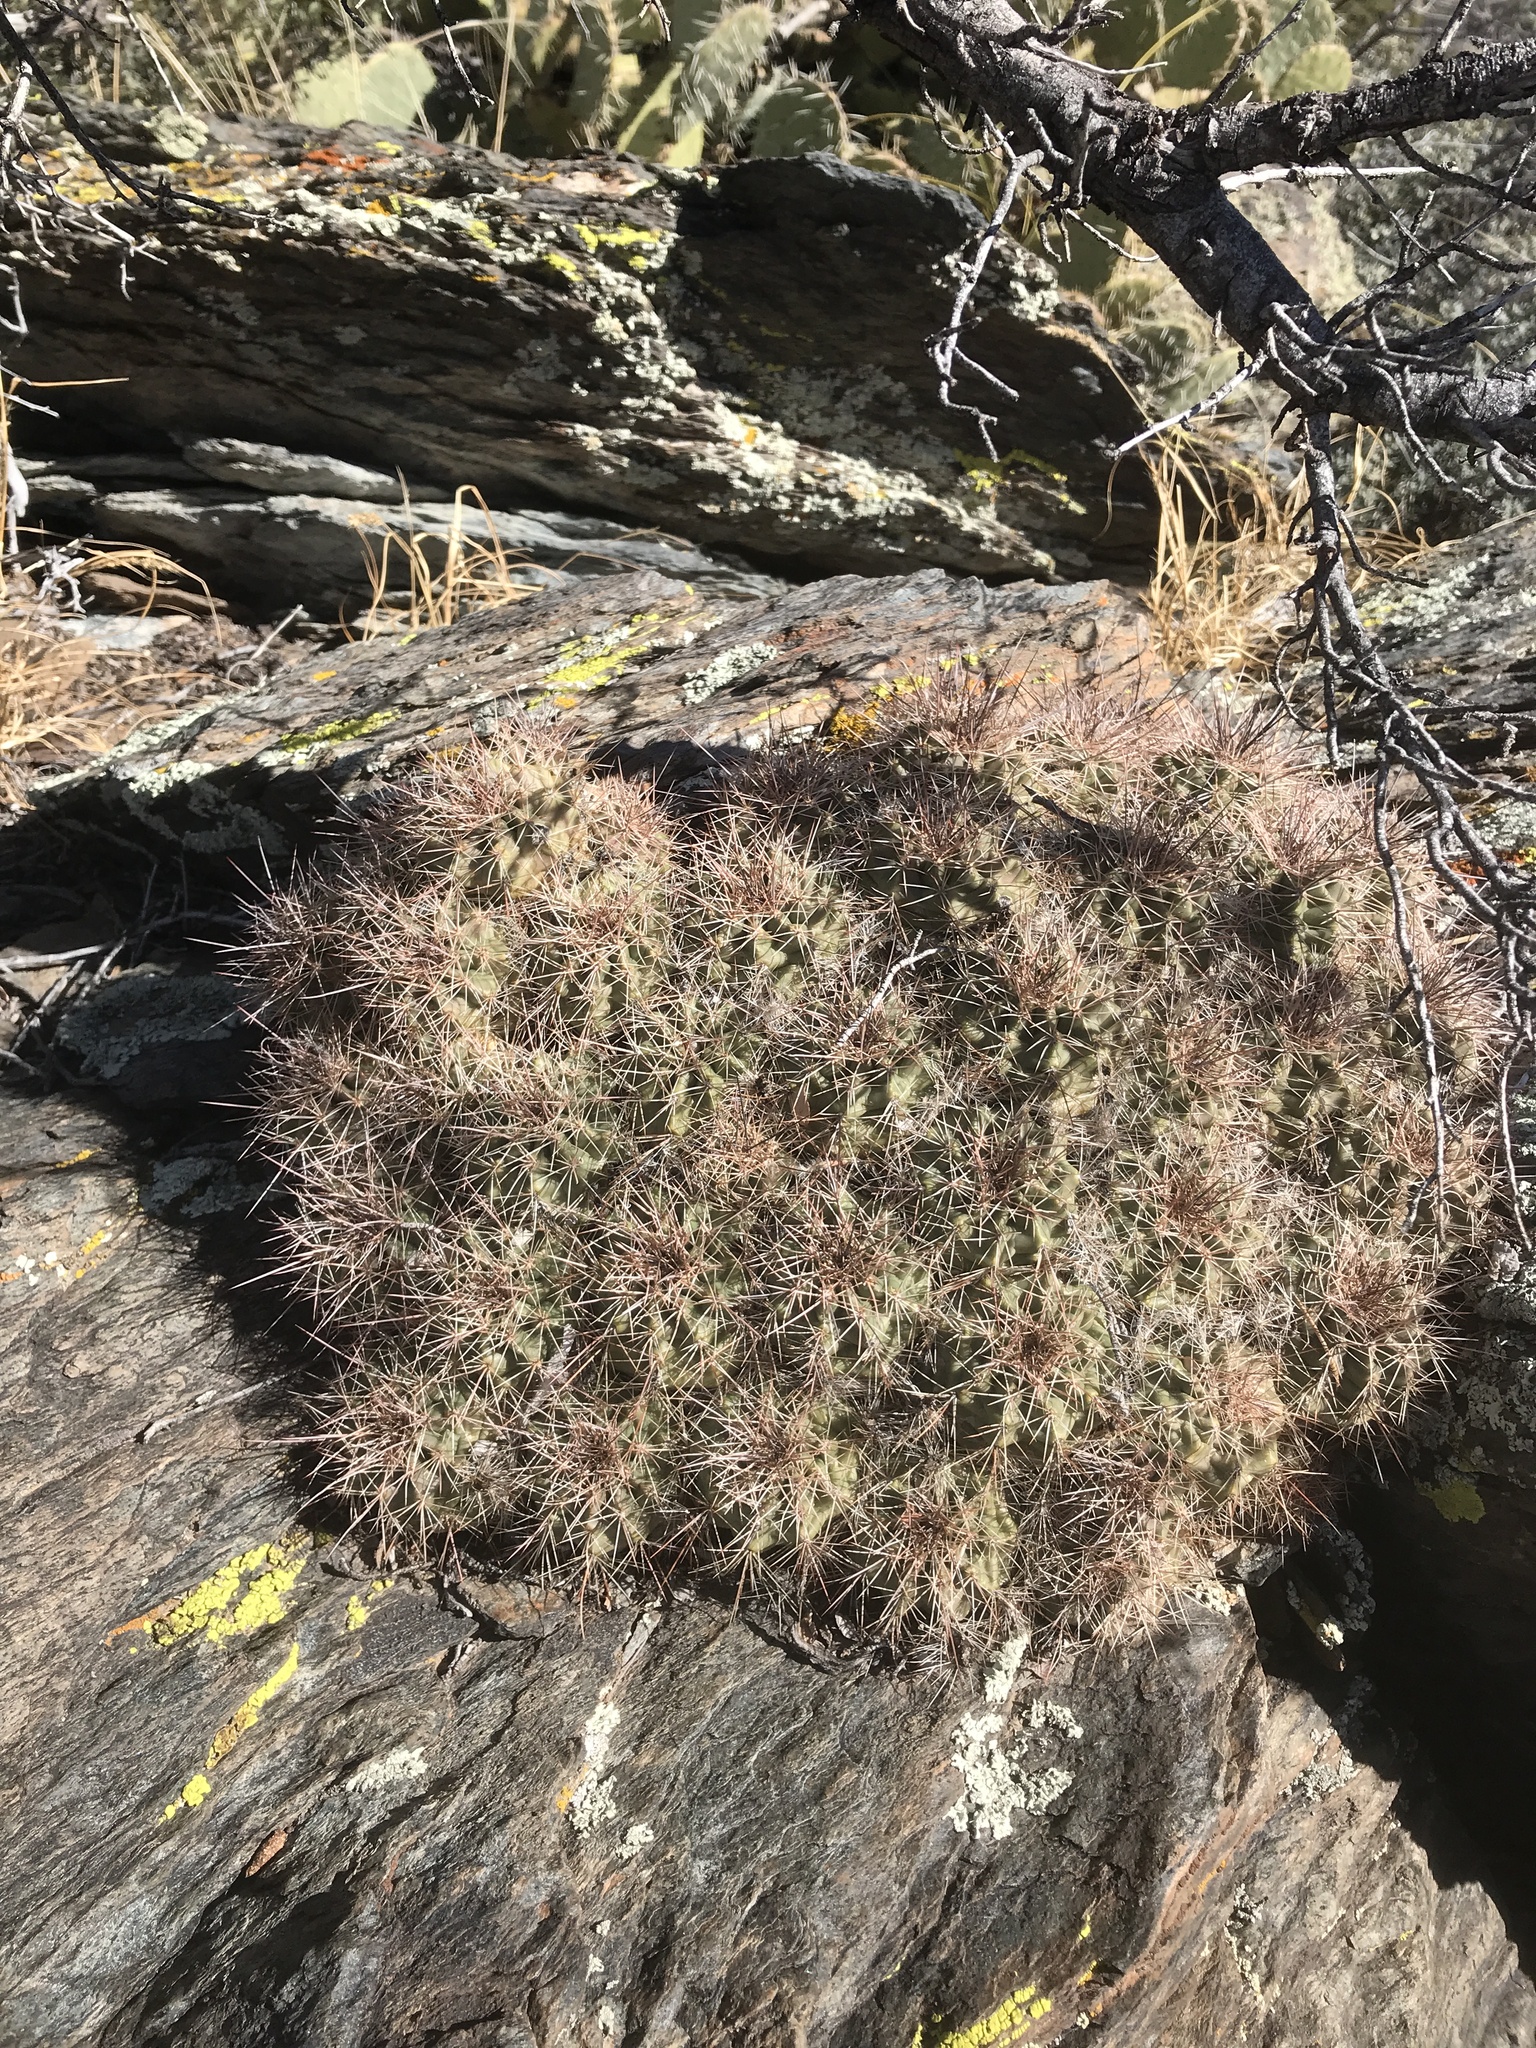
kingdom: Plantae
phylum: Tracheophyta
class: Magnoliopsida
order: Caryophyllales
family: Cactaceae
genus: Echinocereus
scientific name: Echinocereus coccineus
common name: Scarlet hedgehog cactus
